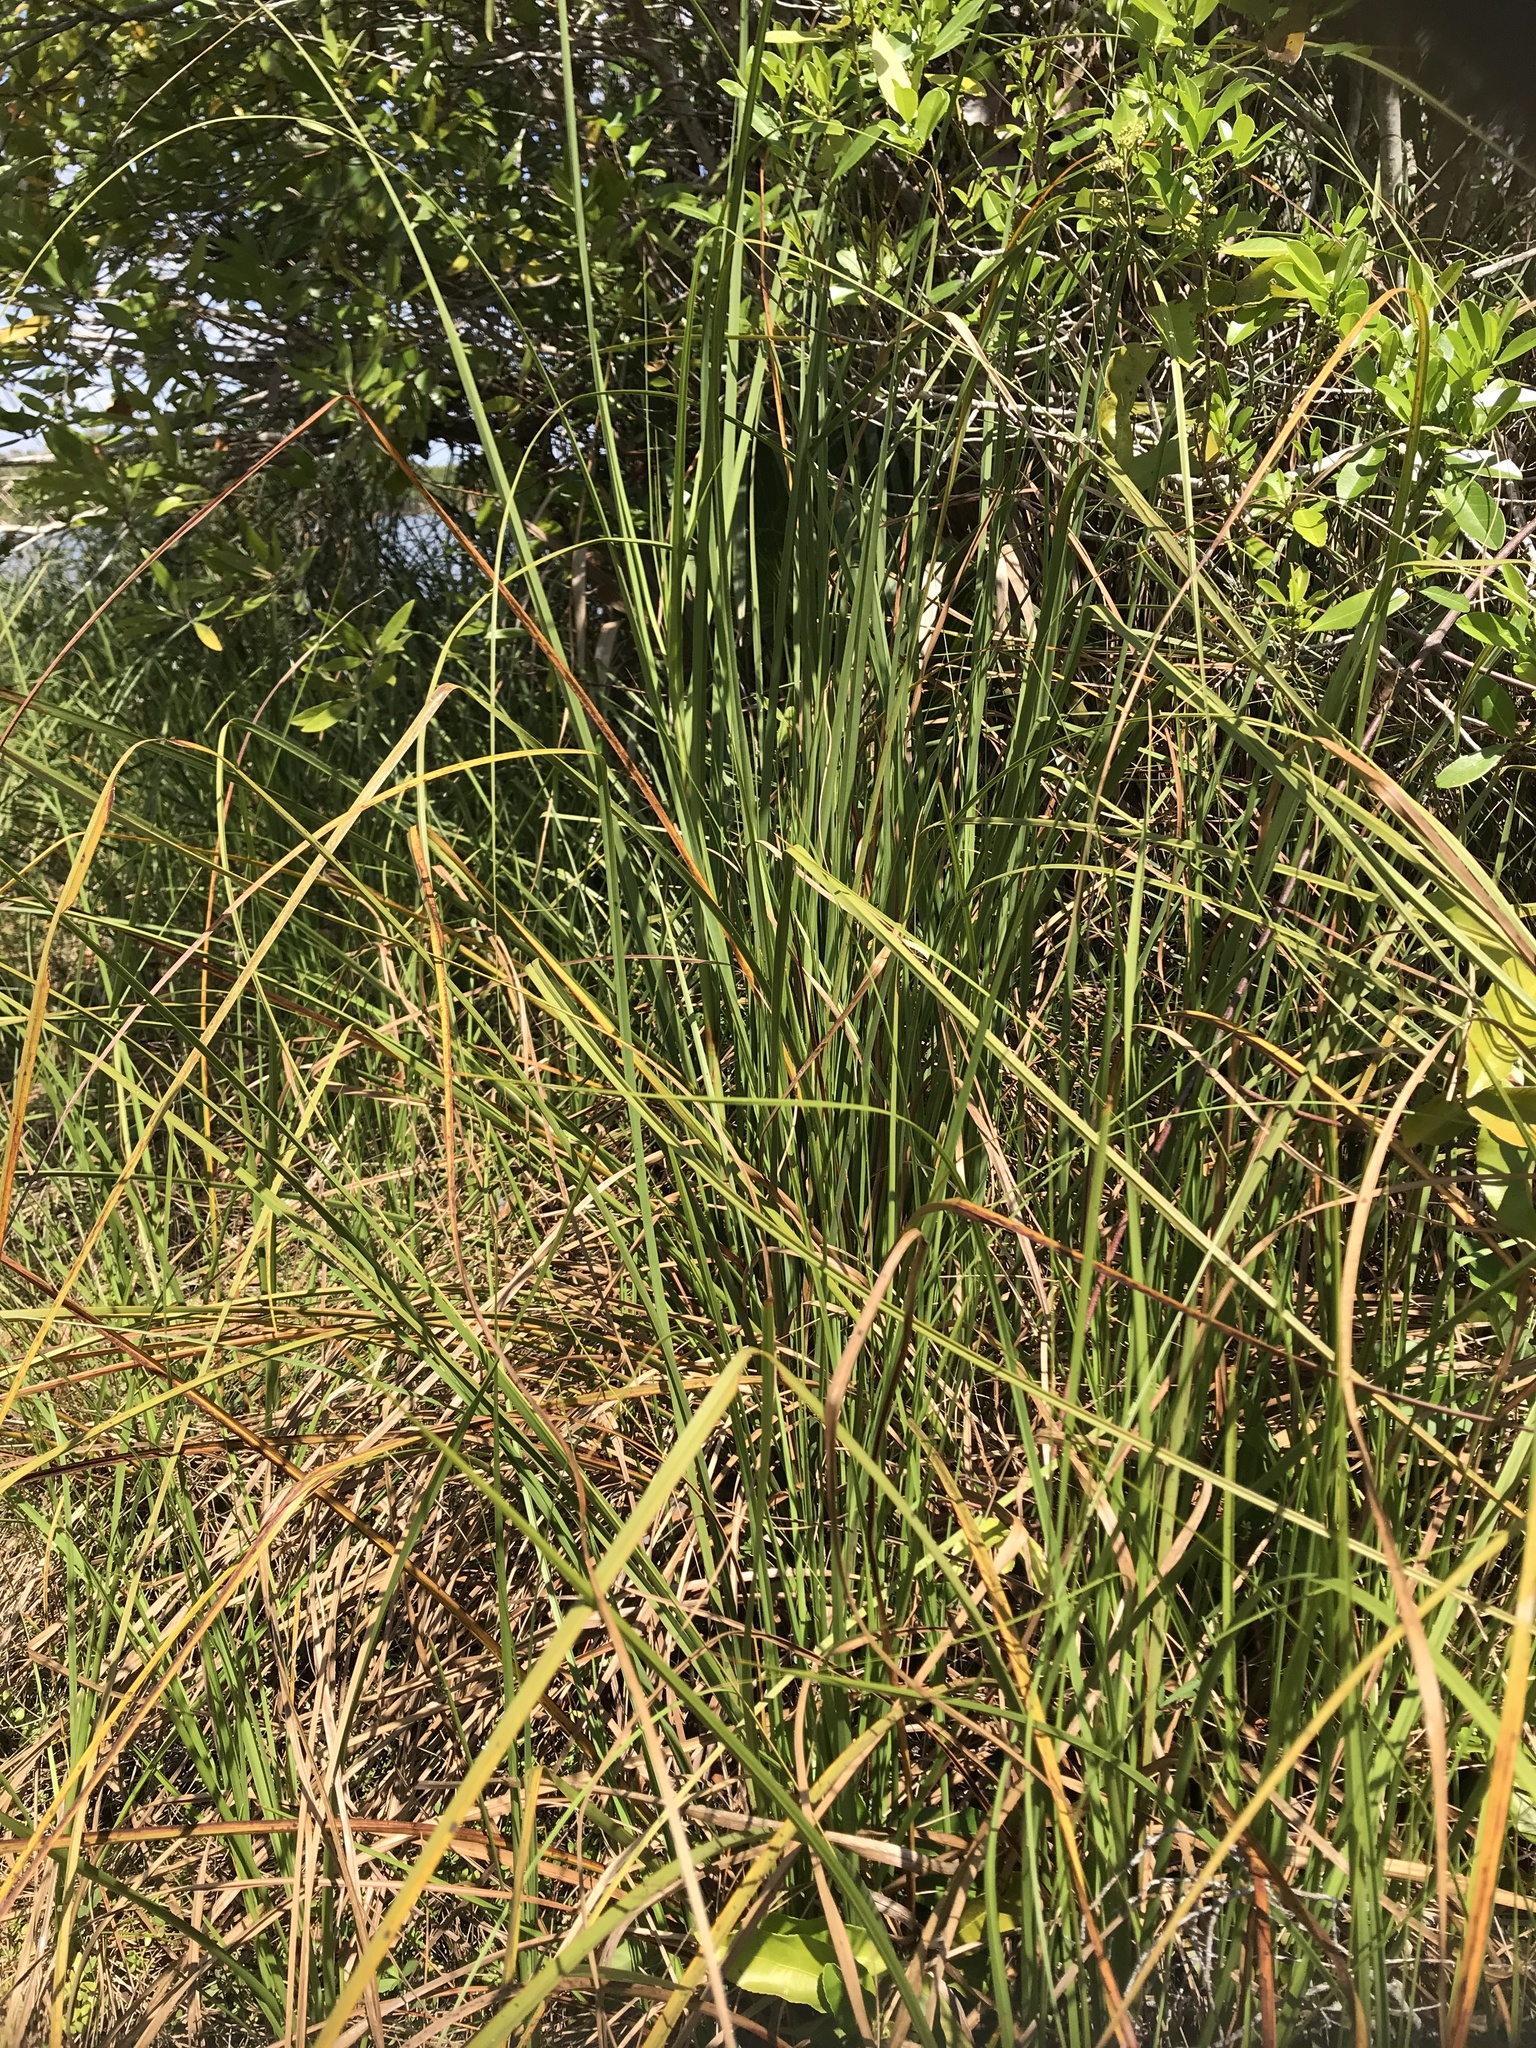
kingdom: Plantae
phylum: Tracheophyta
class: Liliopsida
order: Poales
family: Cyperaceae
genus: Cladium
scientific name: Cladium mariscus
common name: Great fen-sedge
